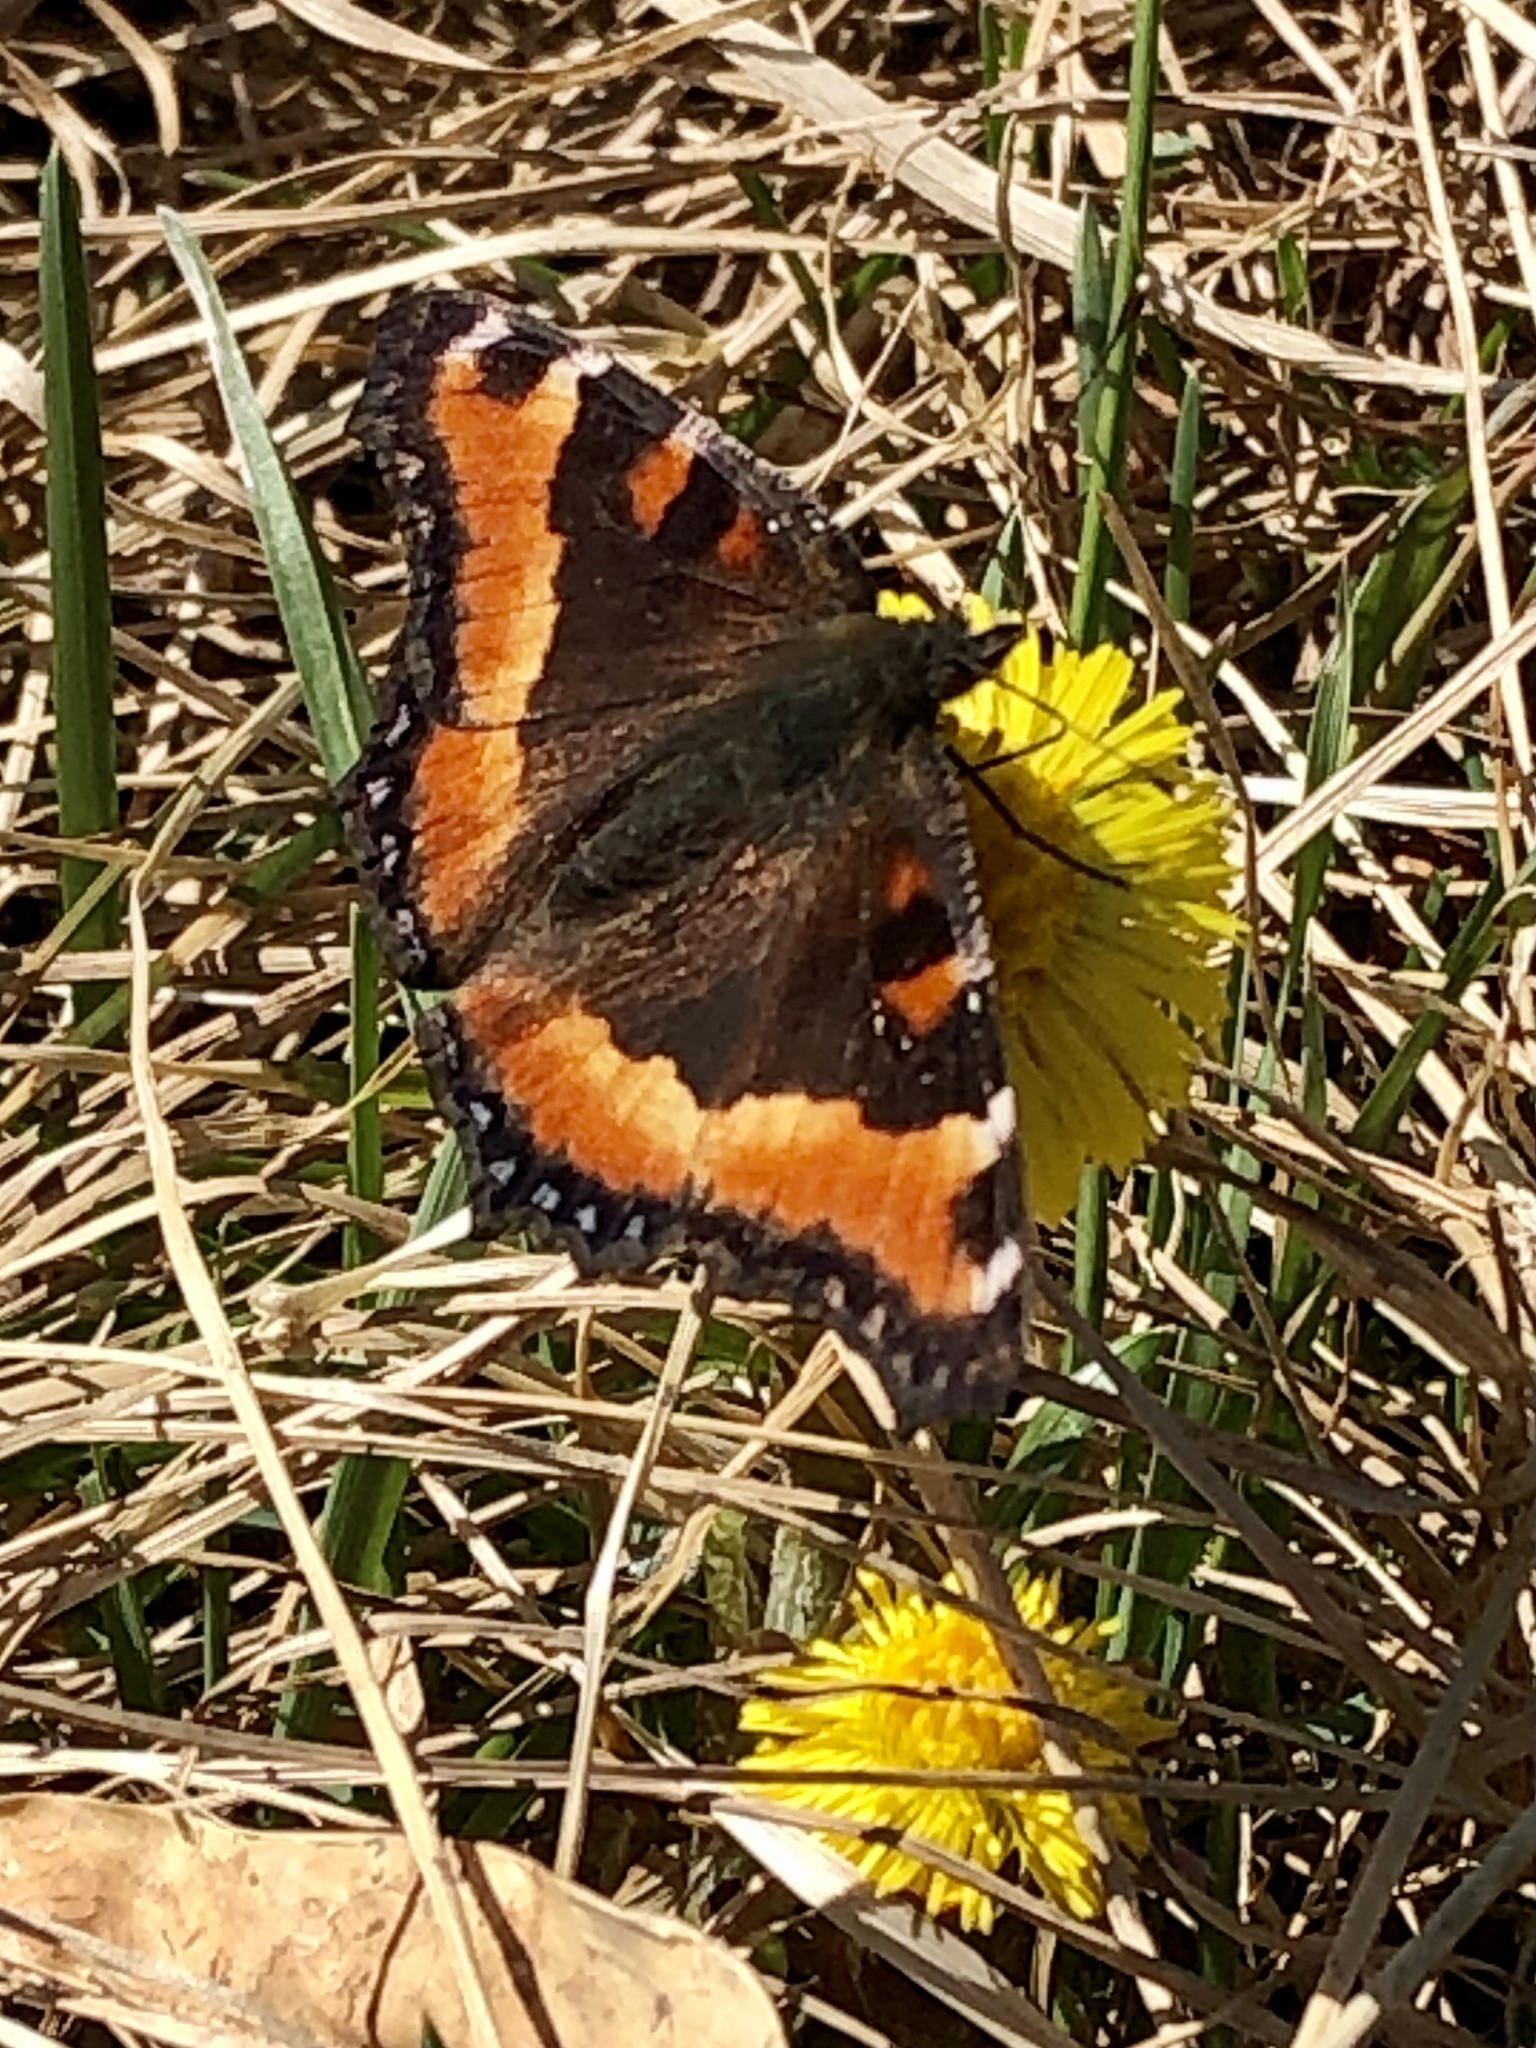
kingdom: Animalia
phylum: Arthropoda
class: Insecta
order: Lepidoptera
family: Nymphalidae
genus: Aglais
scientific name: Aglais milberti
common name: Milbert's tortoiseshell
